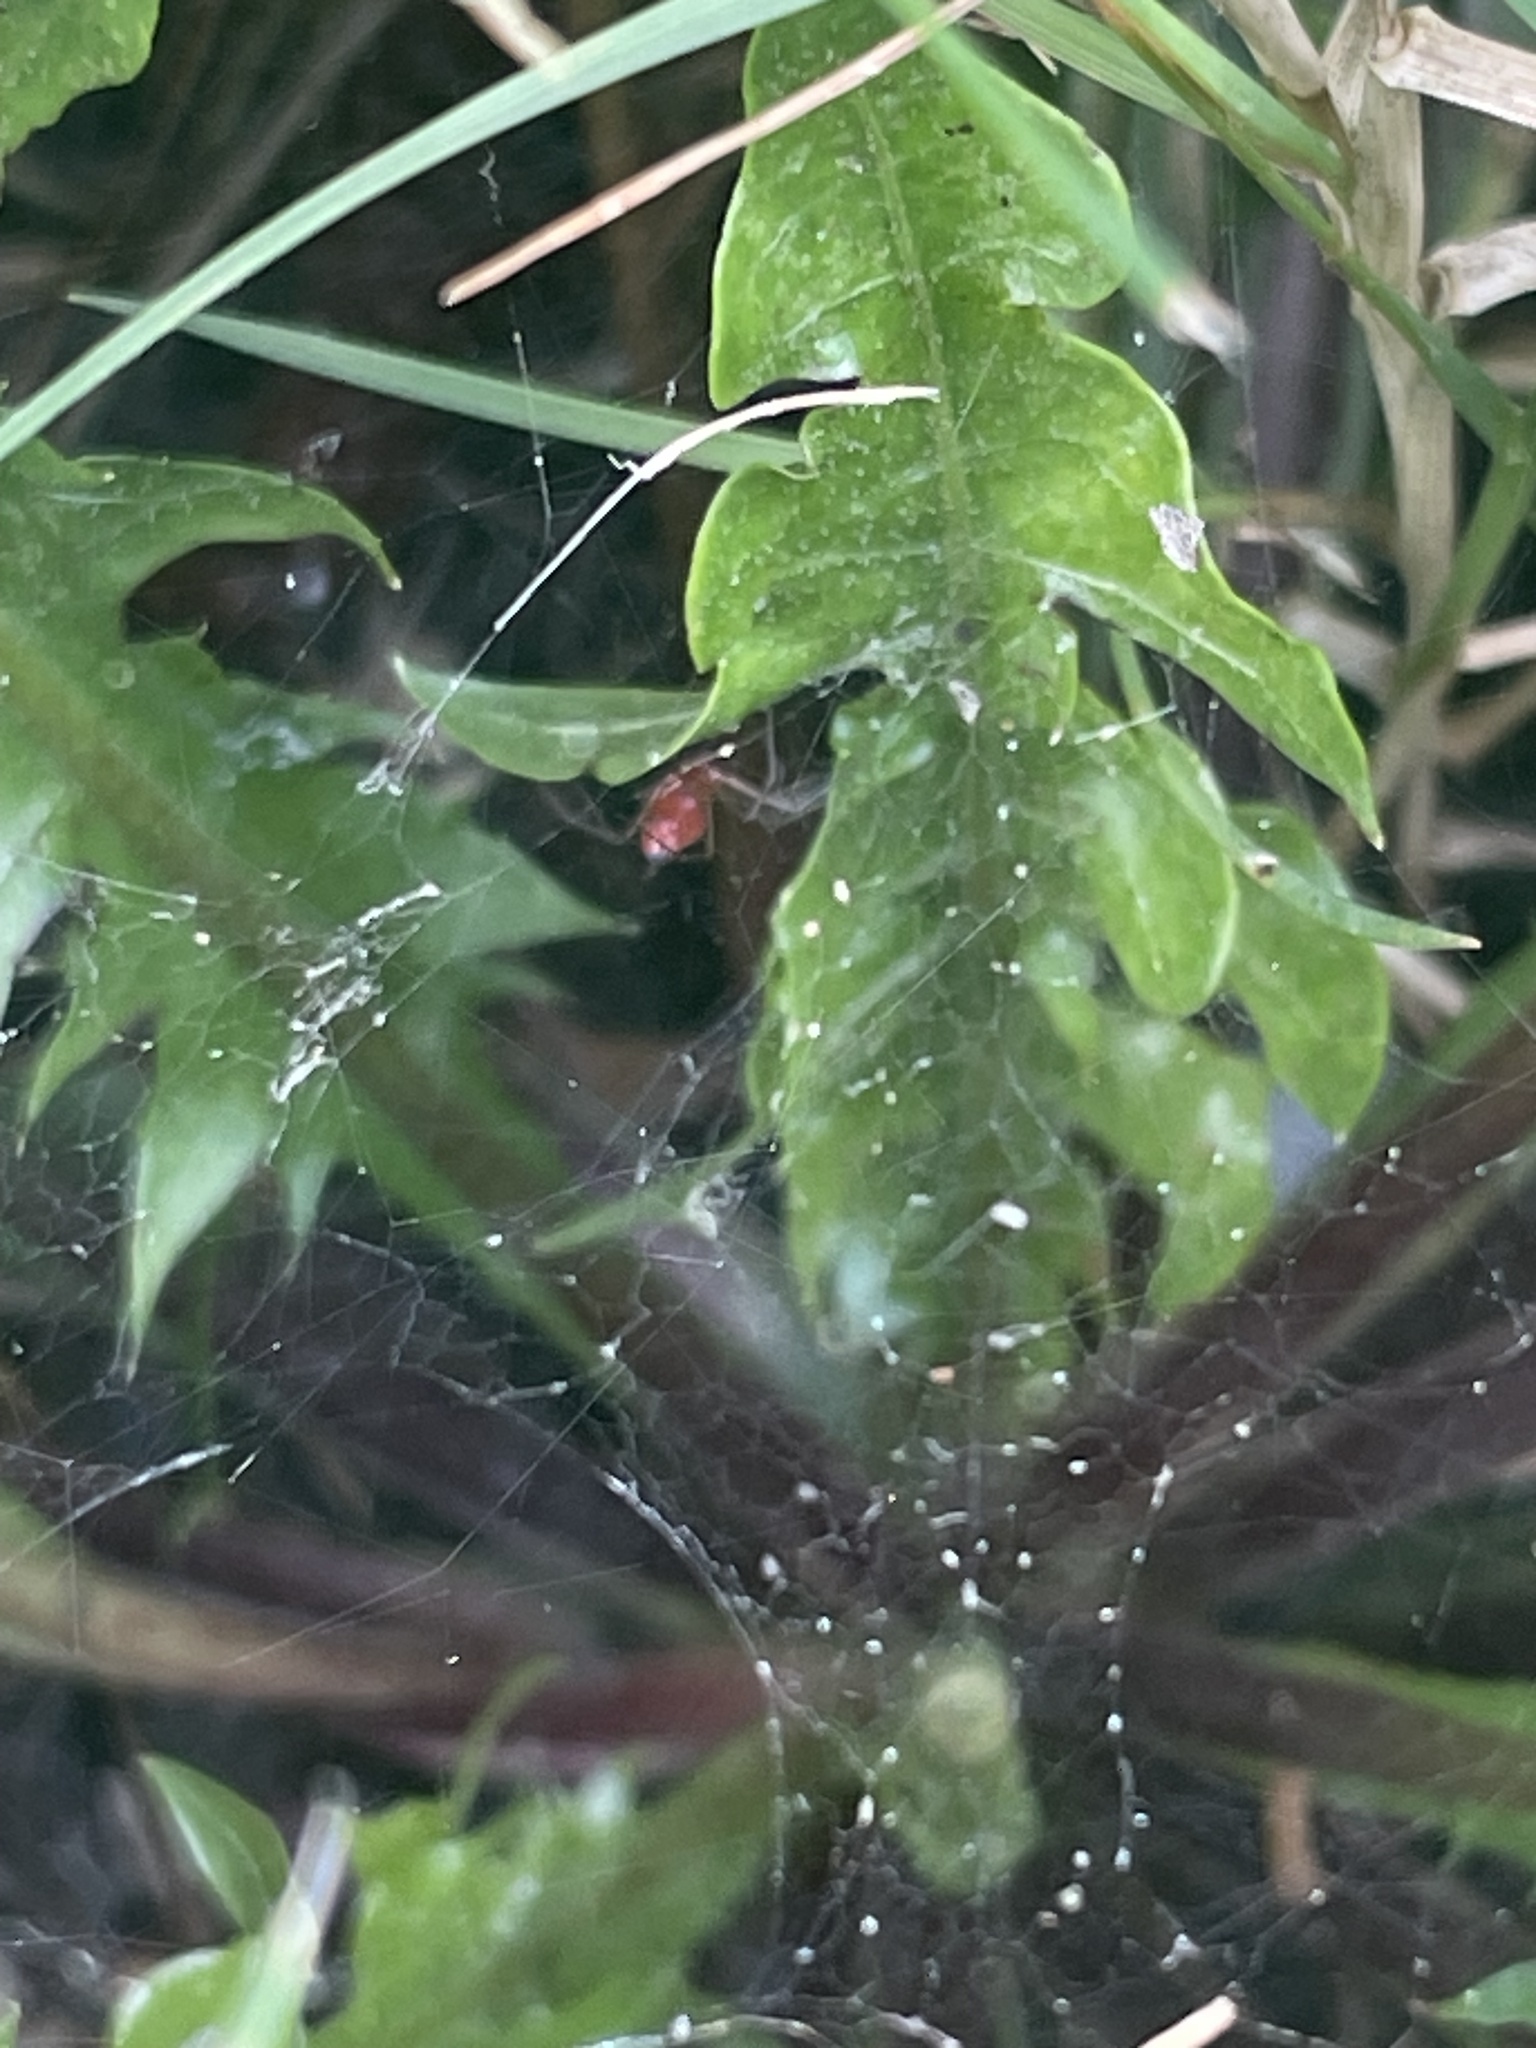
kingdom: Animalia
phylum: Arthropoda
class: Arachnida
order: Araneae
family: Linyphiidae
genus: Florinda
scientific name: Florinda coccinea
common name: Black-tailed red sheetweaver
